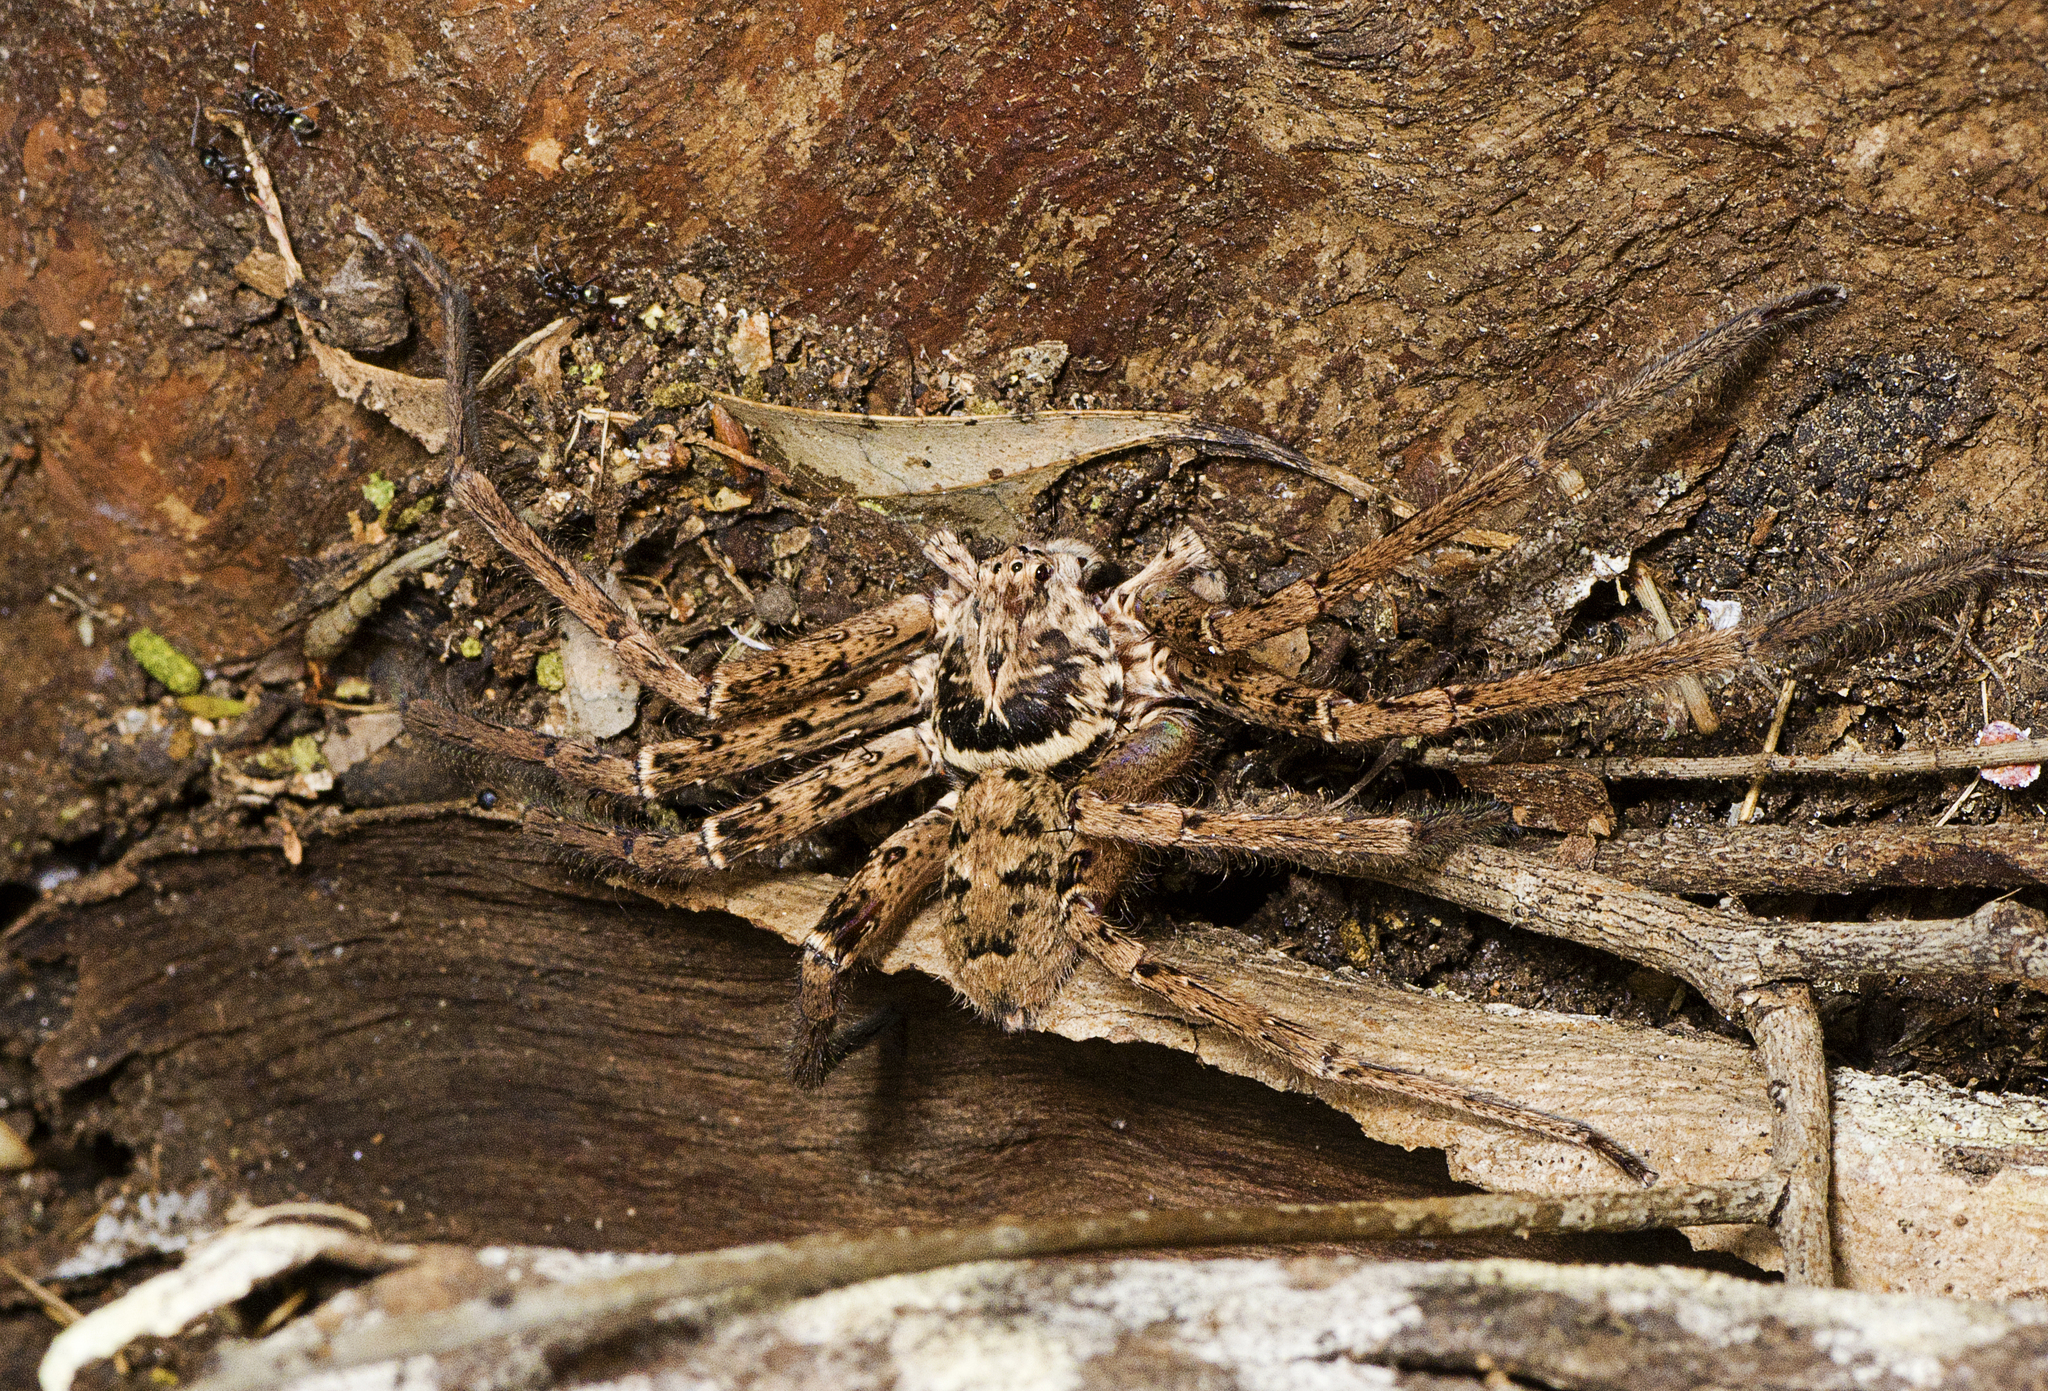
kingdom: Animalia
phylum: Arthropoda
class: Arachnida
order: Araneae
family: Sparassidae
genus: Heteropoda
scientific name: Heteropoda jugulans
